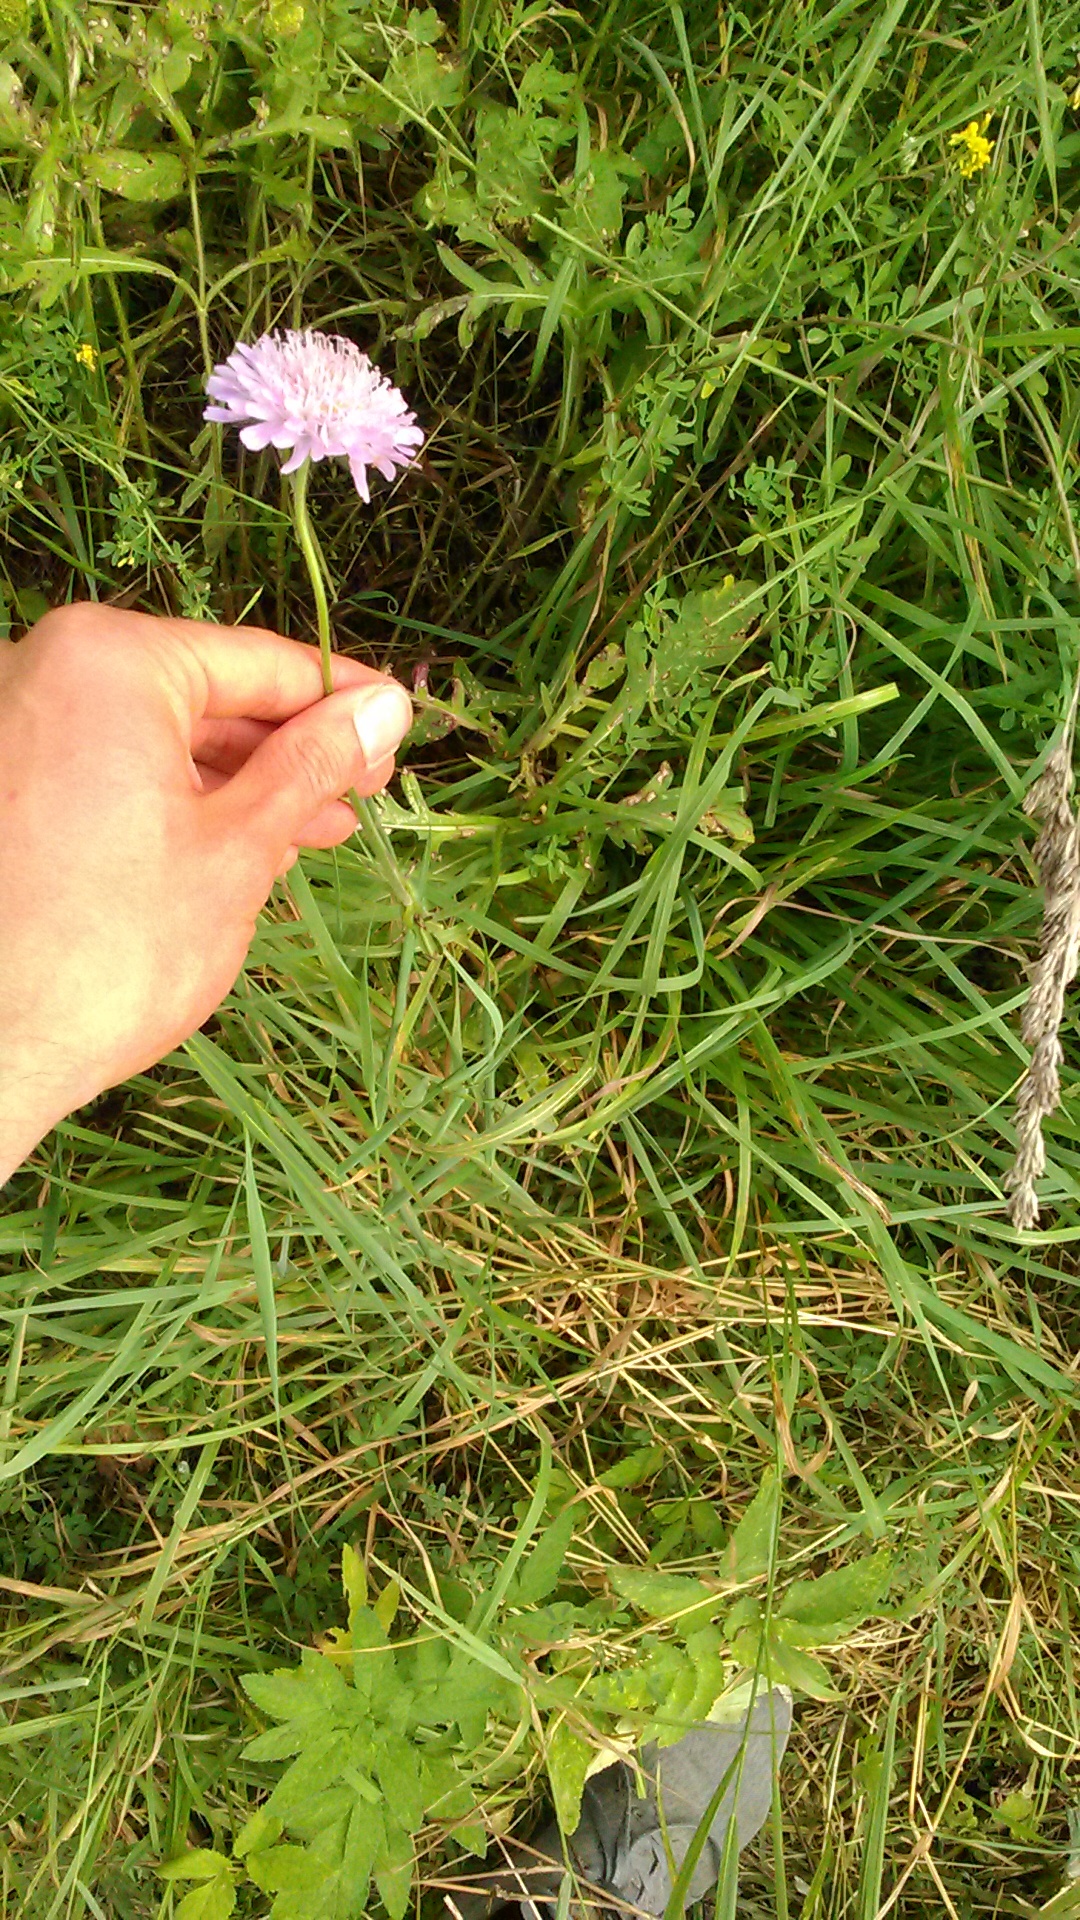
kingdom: Plantae
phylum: Tracheophyta
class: Magnoliopsida
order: Dipsacales
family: Caprifoliaceae
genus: Knautia
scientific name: Knautia arvensis
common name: Field scabiosa
